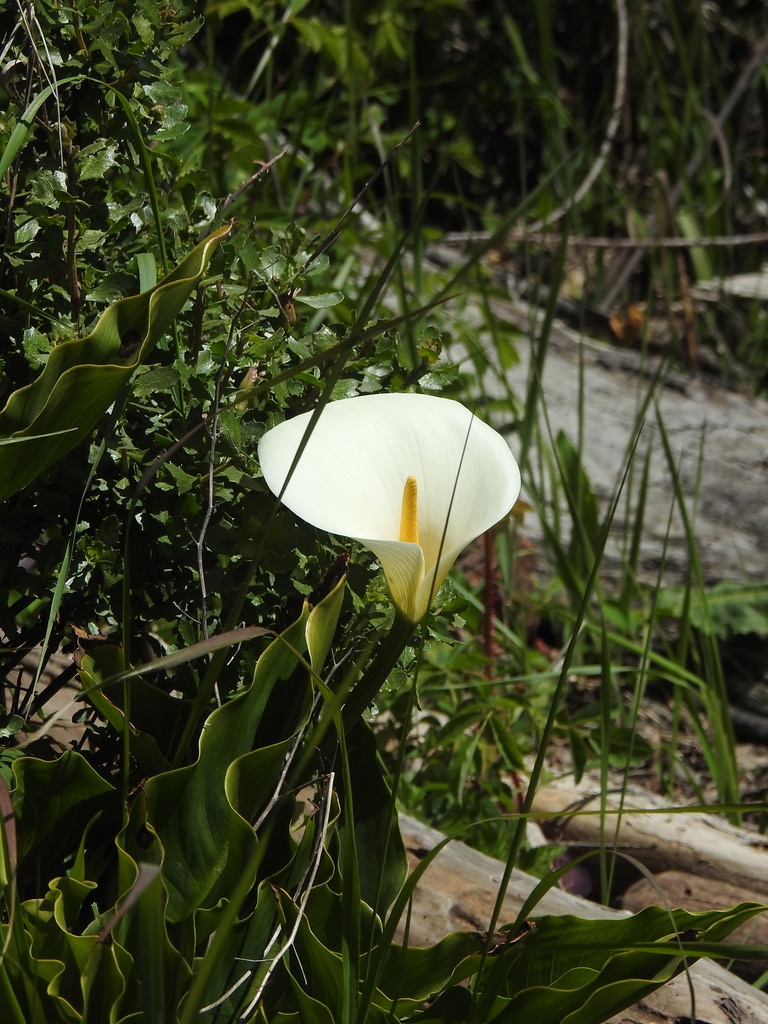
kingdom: Plantae
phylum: Tracheophyta
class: Liliopsida
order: Alismatales
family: Araceae
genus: Zantedeschia
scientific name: Zantedeschia aethiopica
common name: Altar-lily
